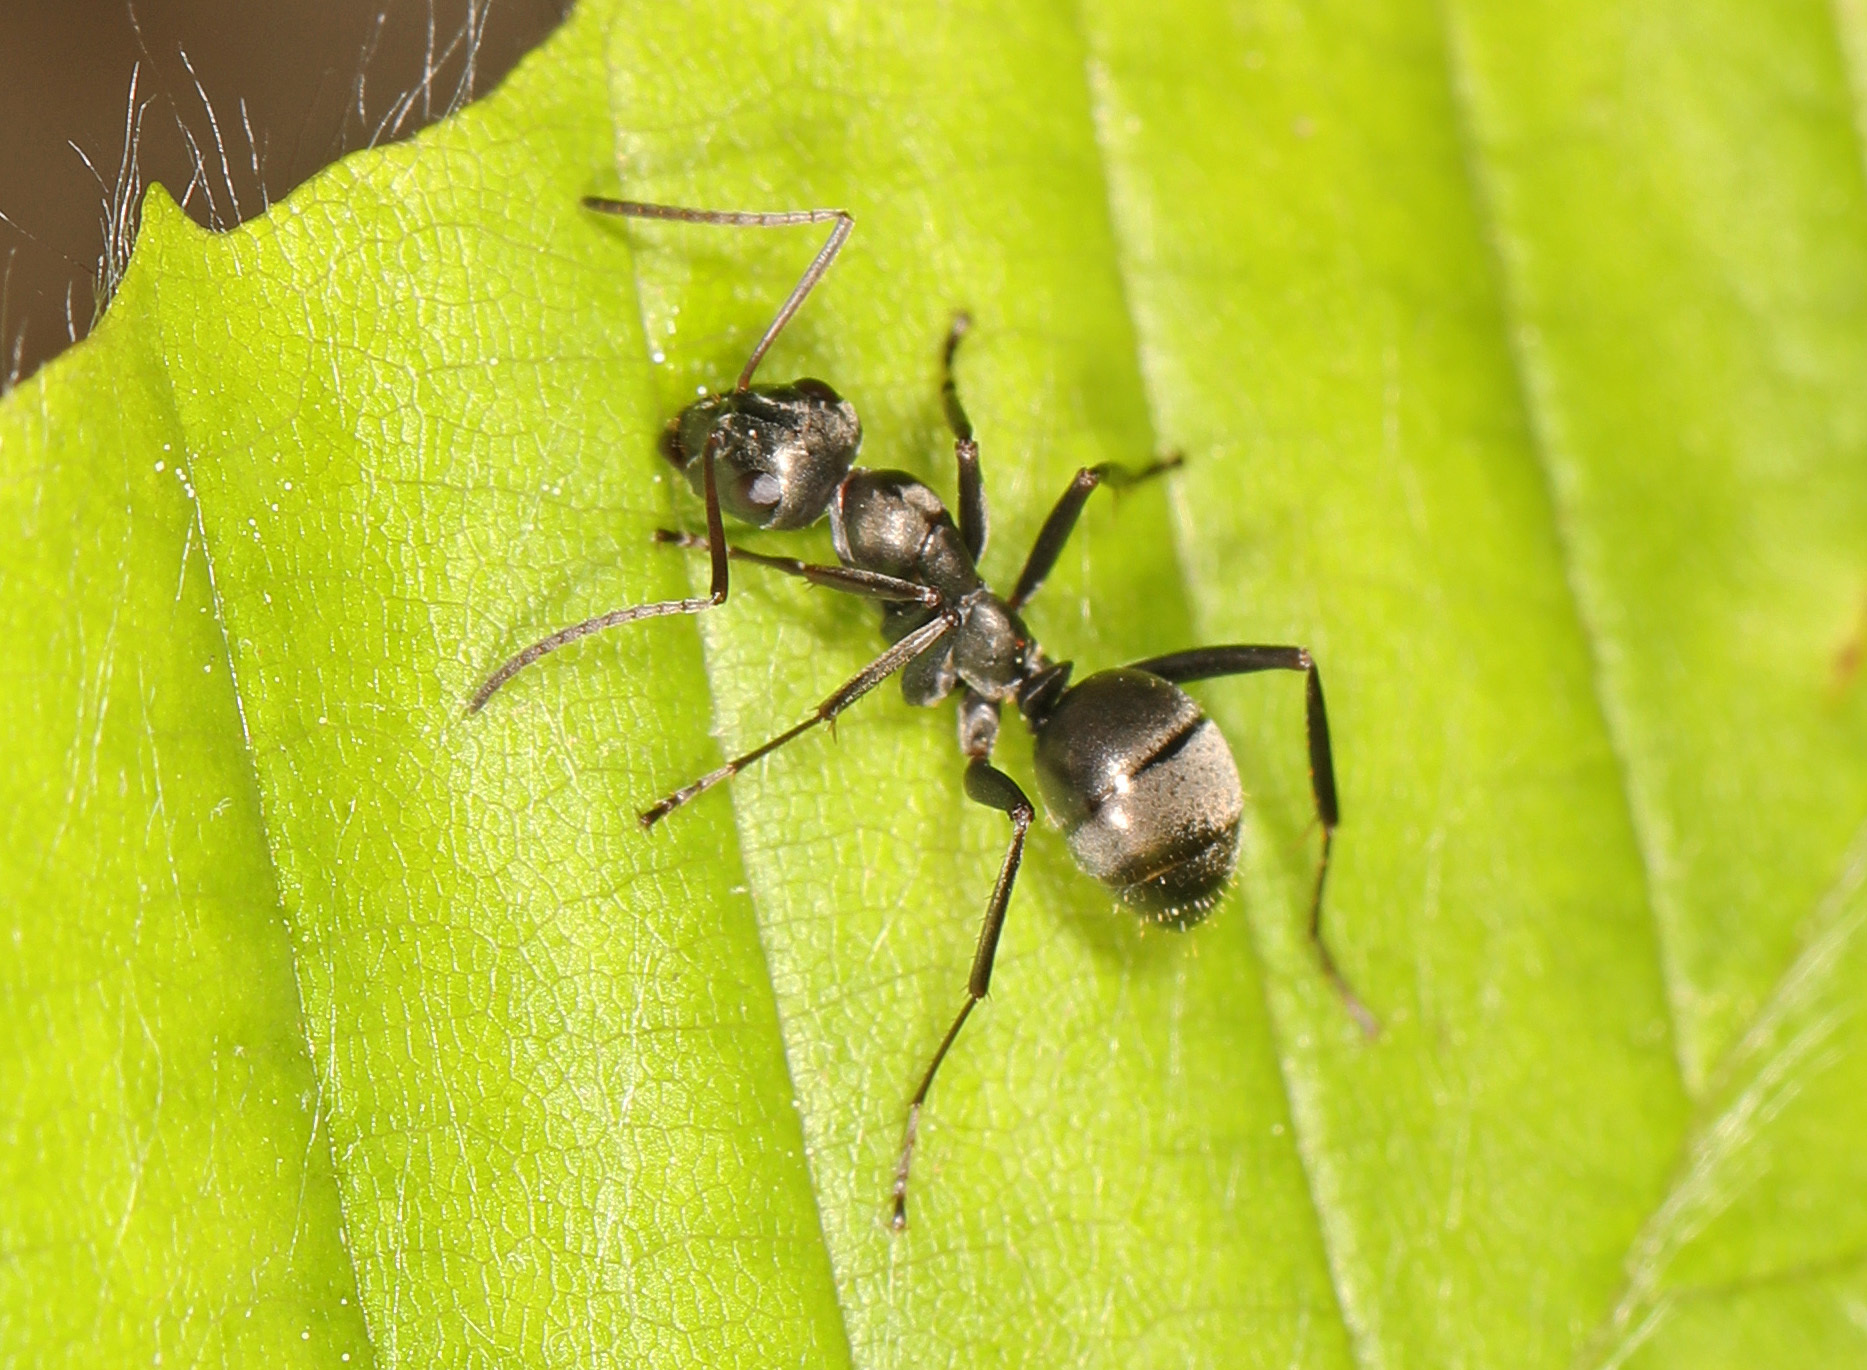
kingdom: Animalia
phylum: Arthropoda
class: Insecta
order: Hymenoptera
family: Formicidae
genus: Formica
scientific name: Formica subsericea
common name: Silky field ant
